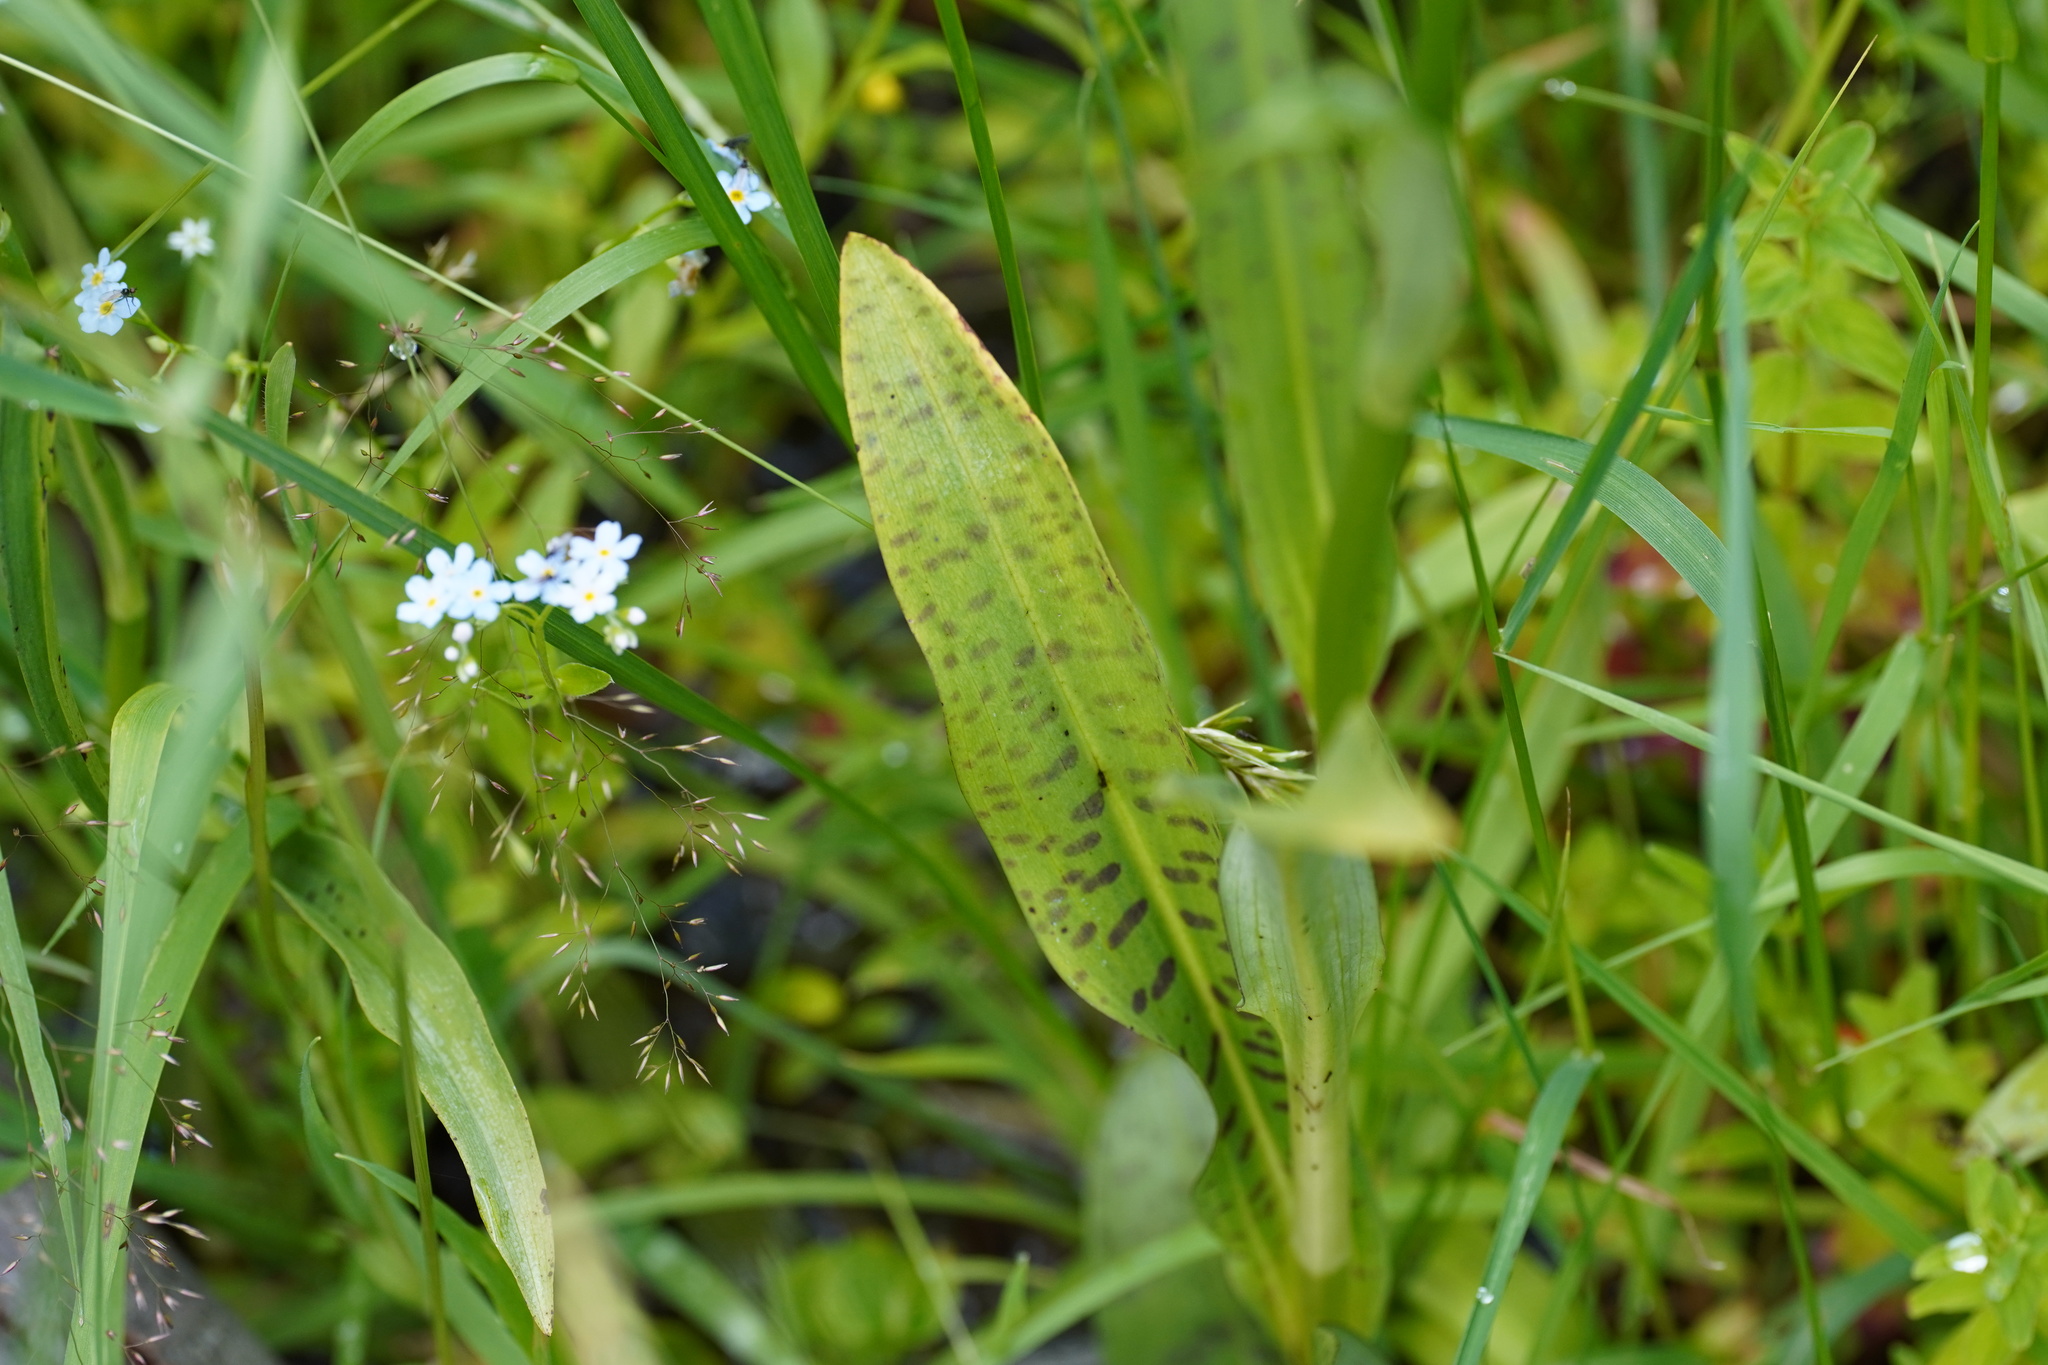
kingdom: Plantae
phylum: Tracheophyta
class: Liliopsida
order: Asparagales
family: Orchidaceae
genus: Dactylorhiza
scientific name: Dactylorhiza maculata
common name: Heath spotted-orchid
